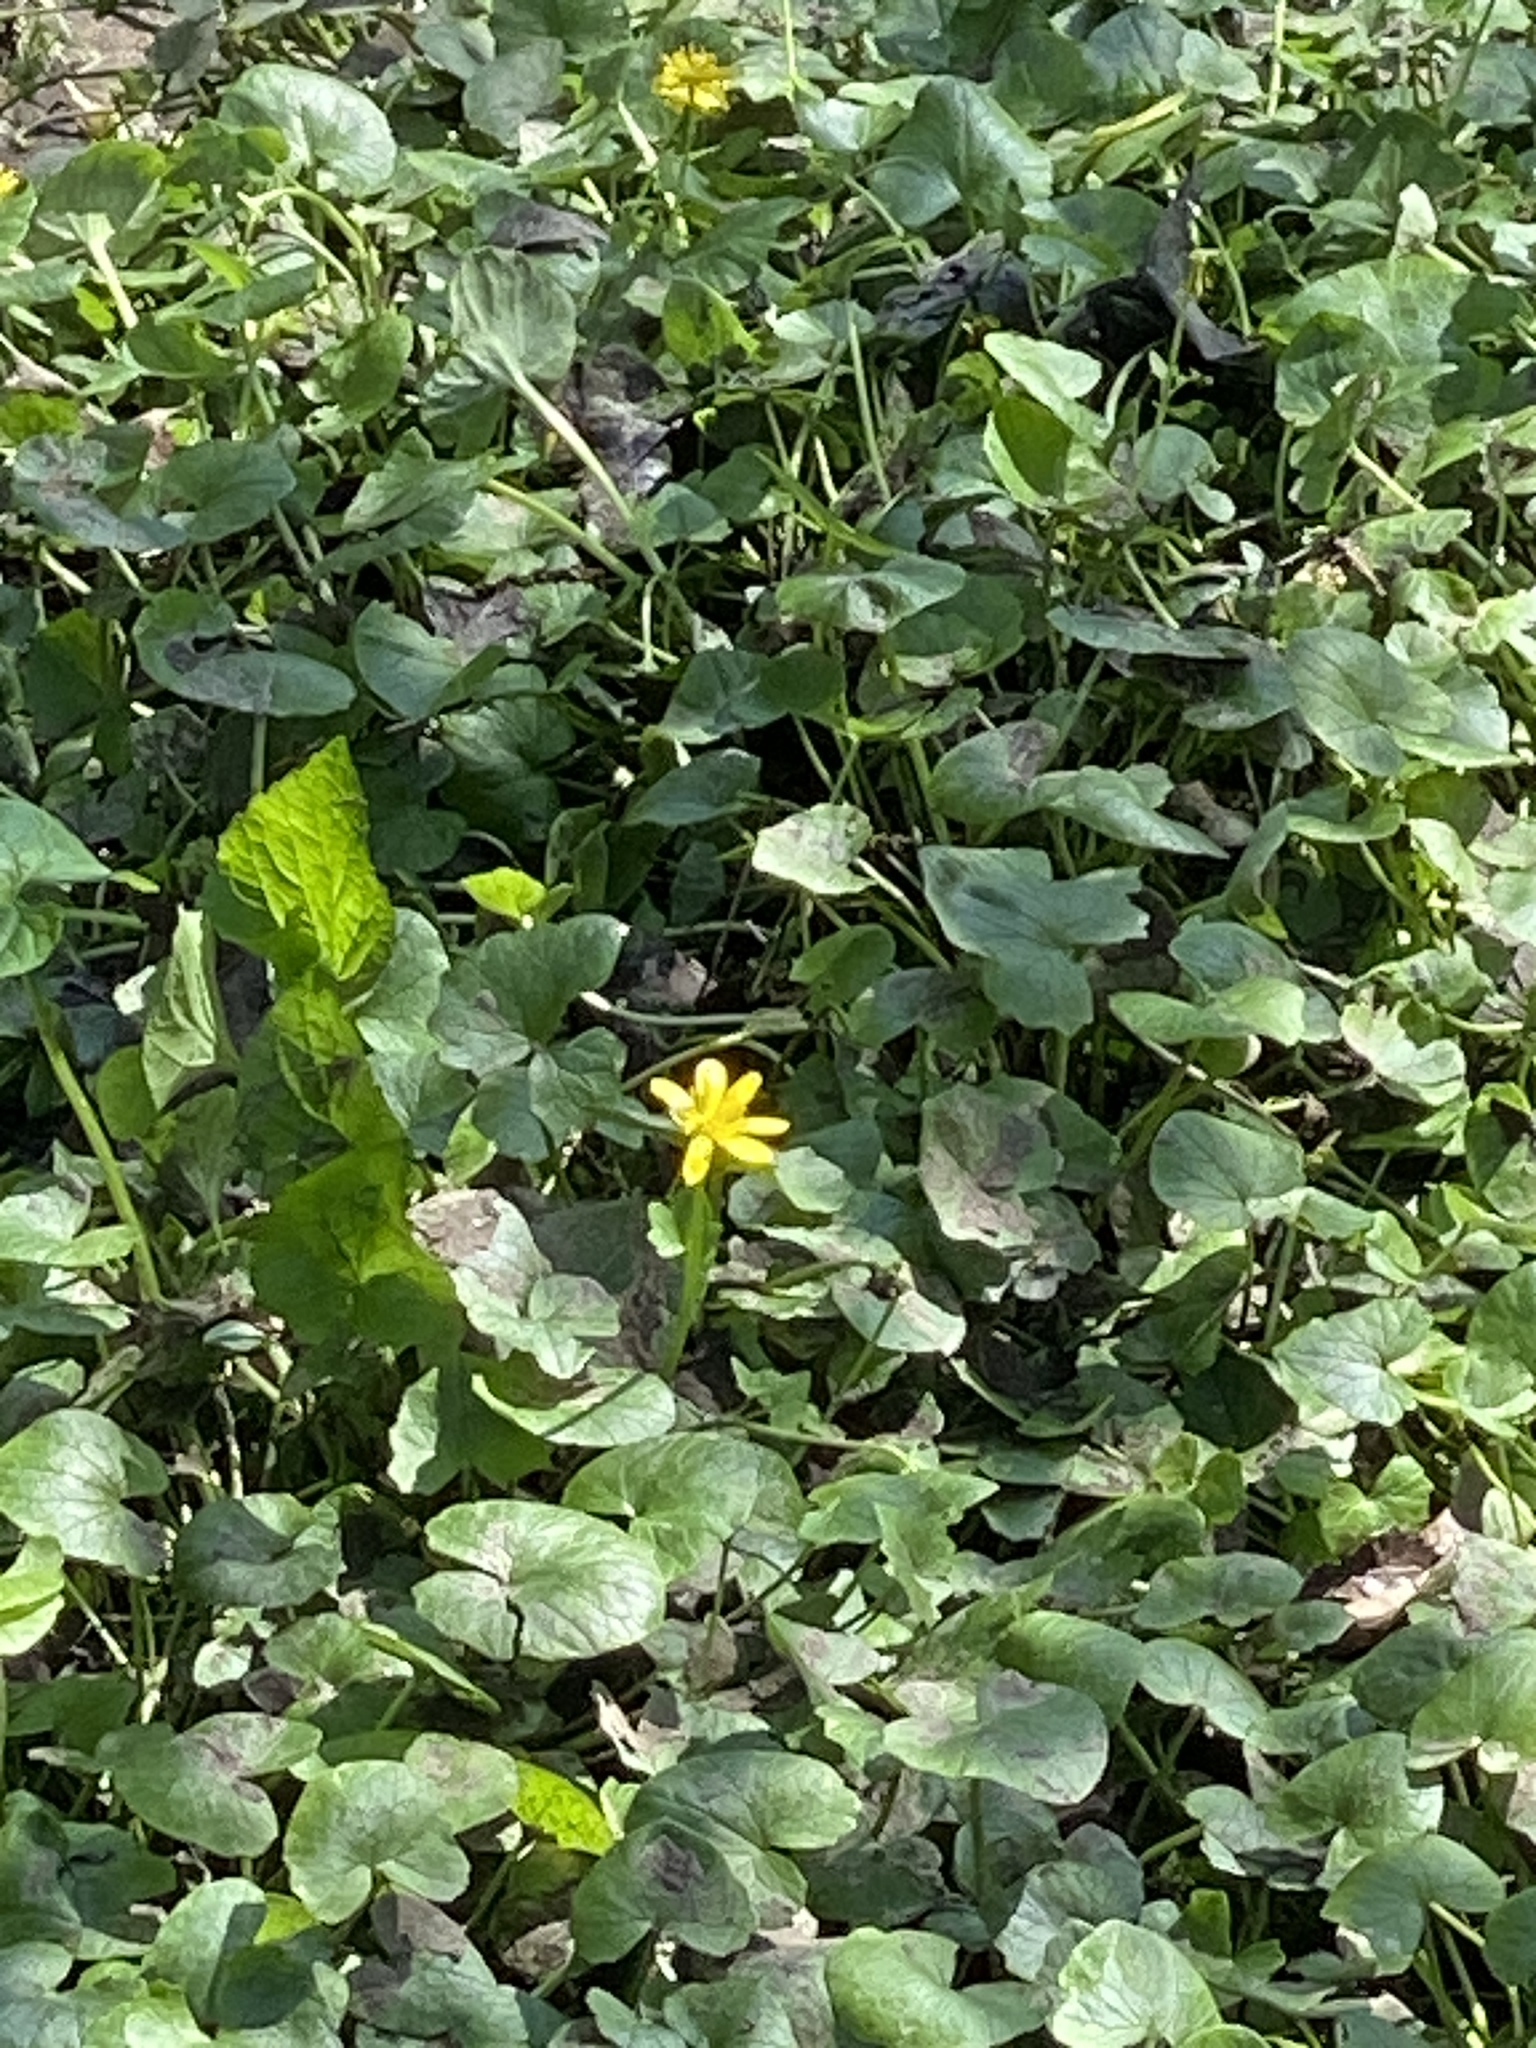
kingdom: Plantae
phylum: Tracheophyta
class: Magnoliopsida
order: Ranunculales
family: Ranunculaceae
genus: Ficaria
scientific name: Ficaria verna
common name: Lesser celandine
